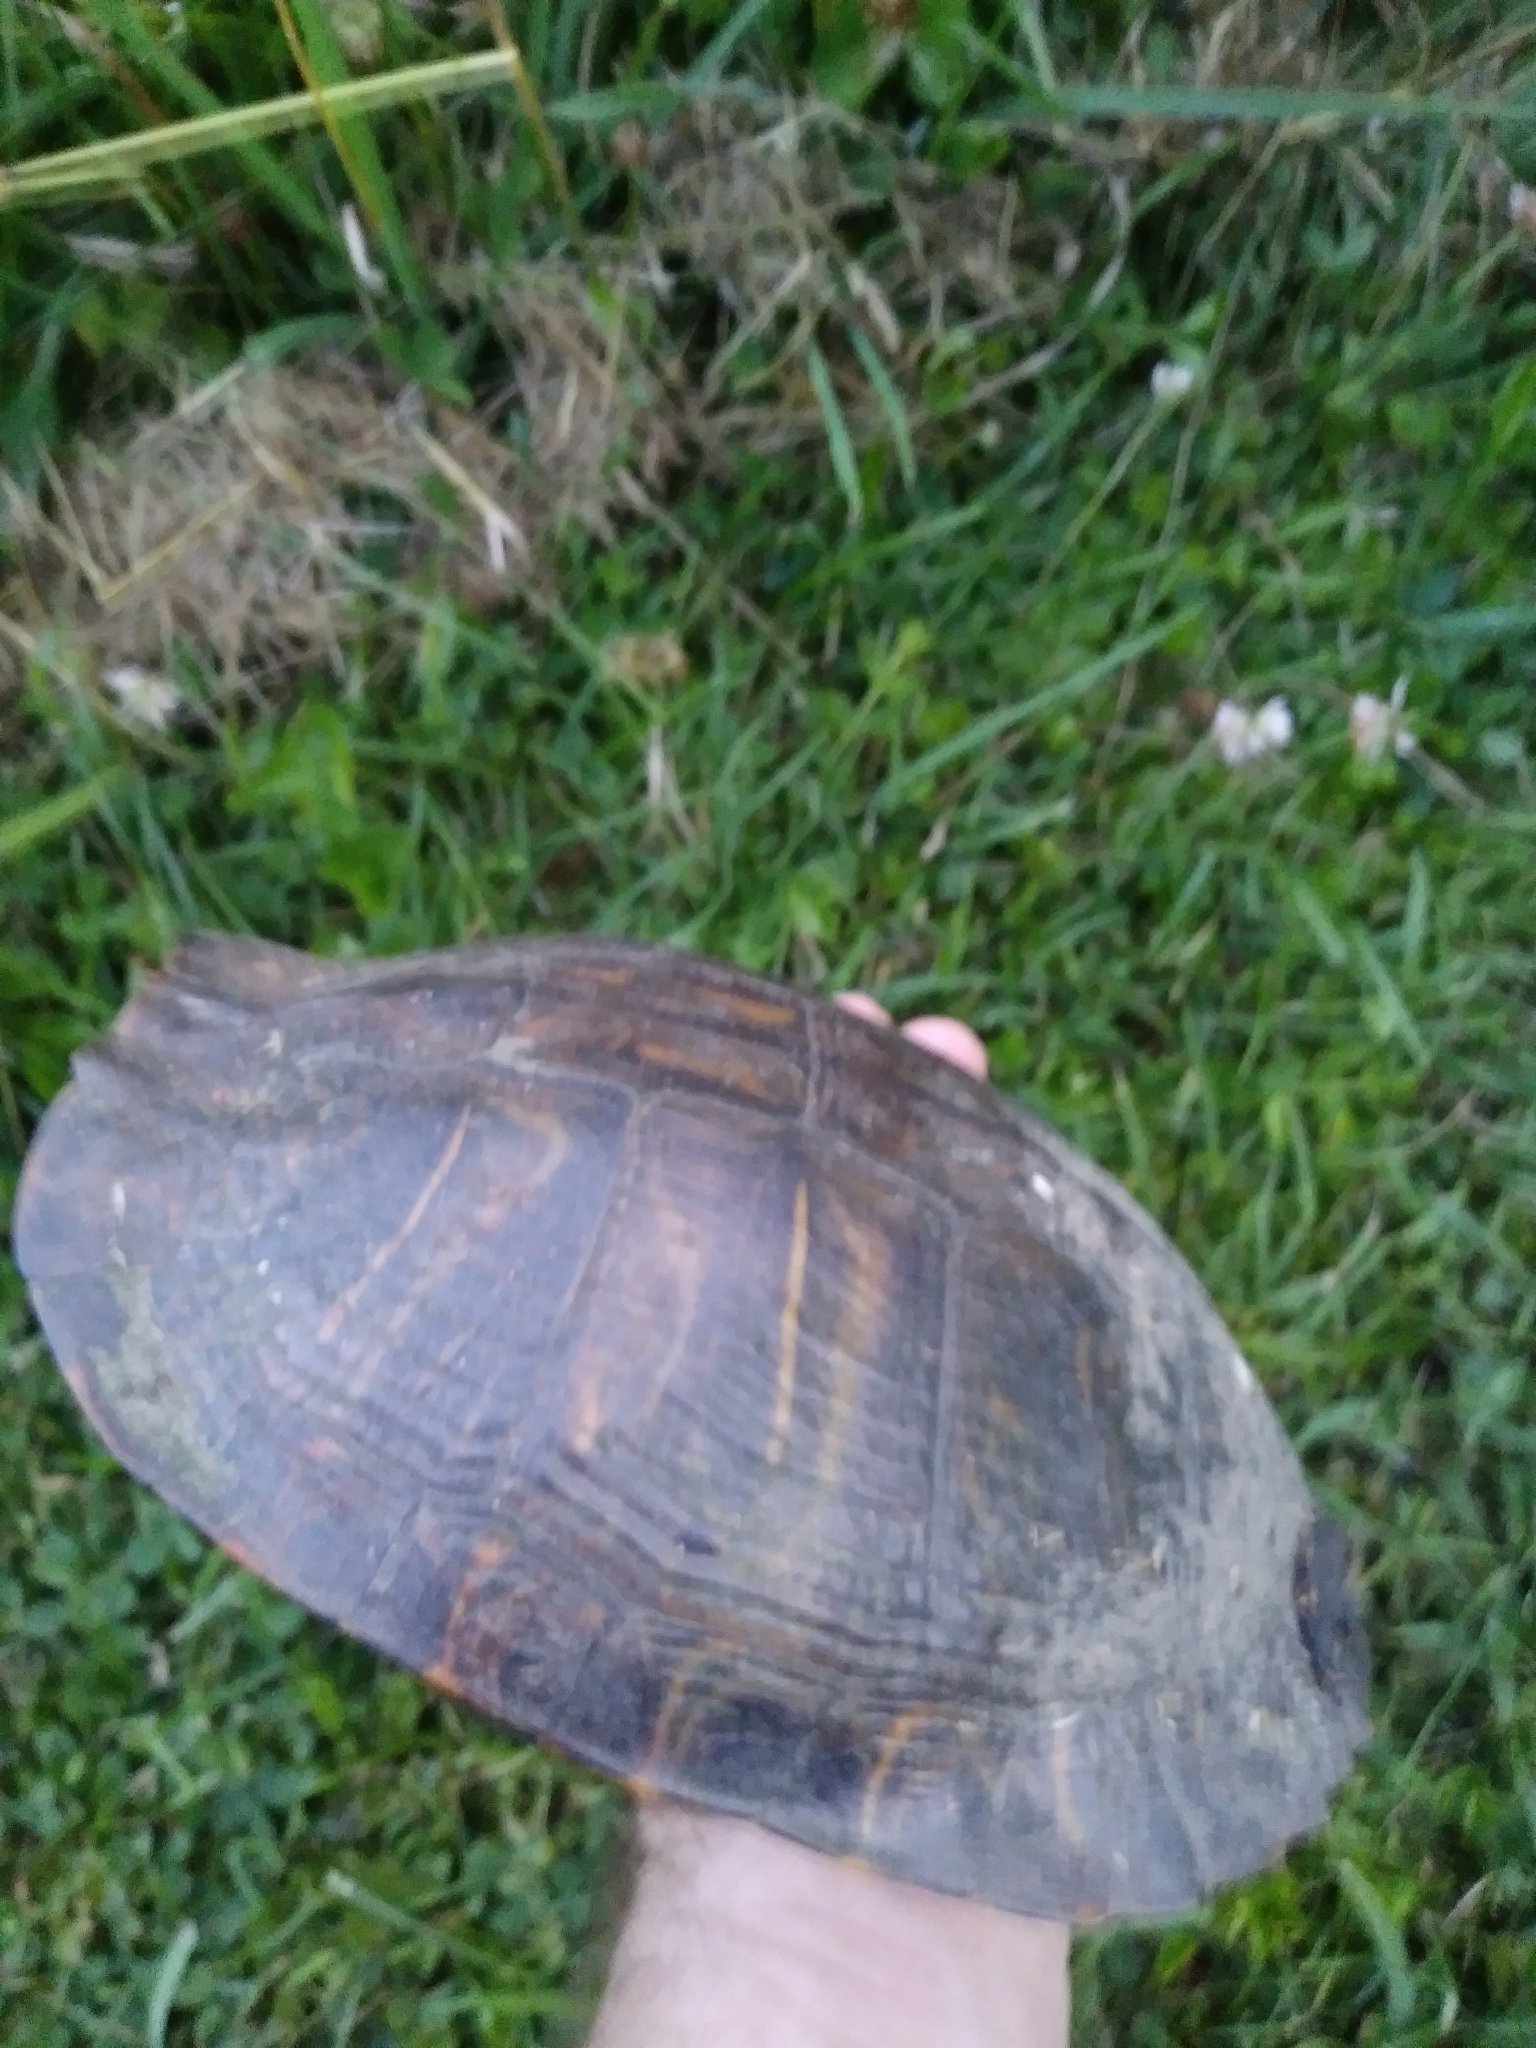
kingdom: Animalia
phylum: Chordata
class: Testudines
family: Emydidae
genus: Trachemys
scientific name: Trachemys scripta
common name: Slider
